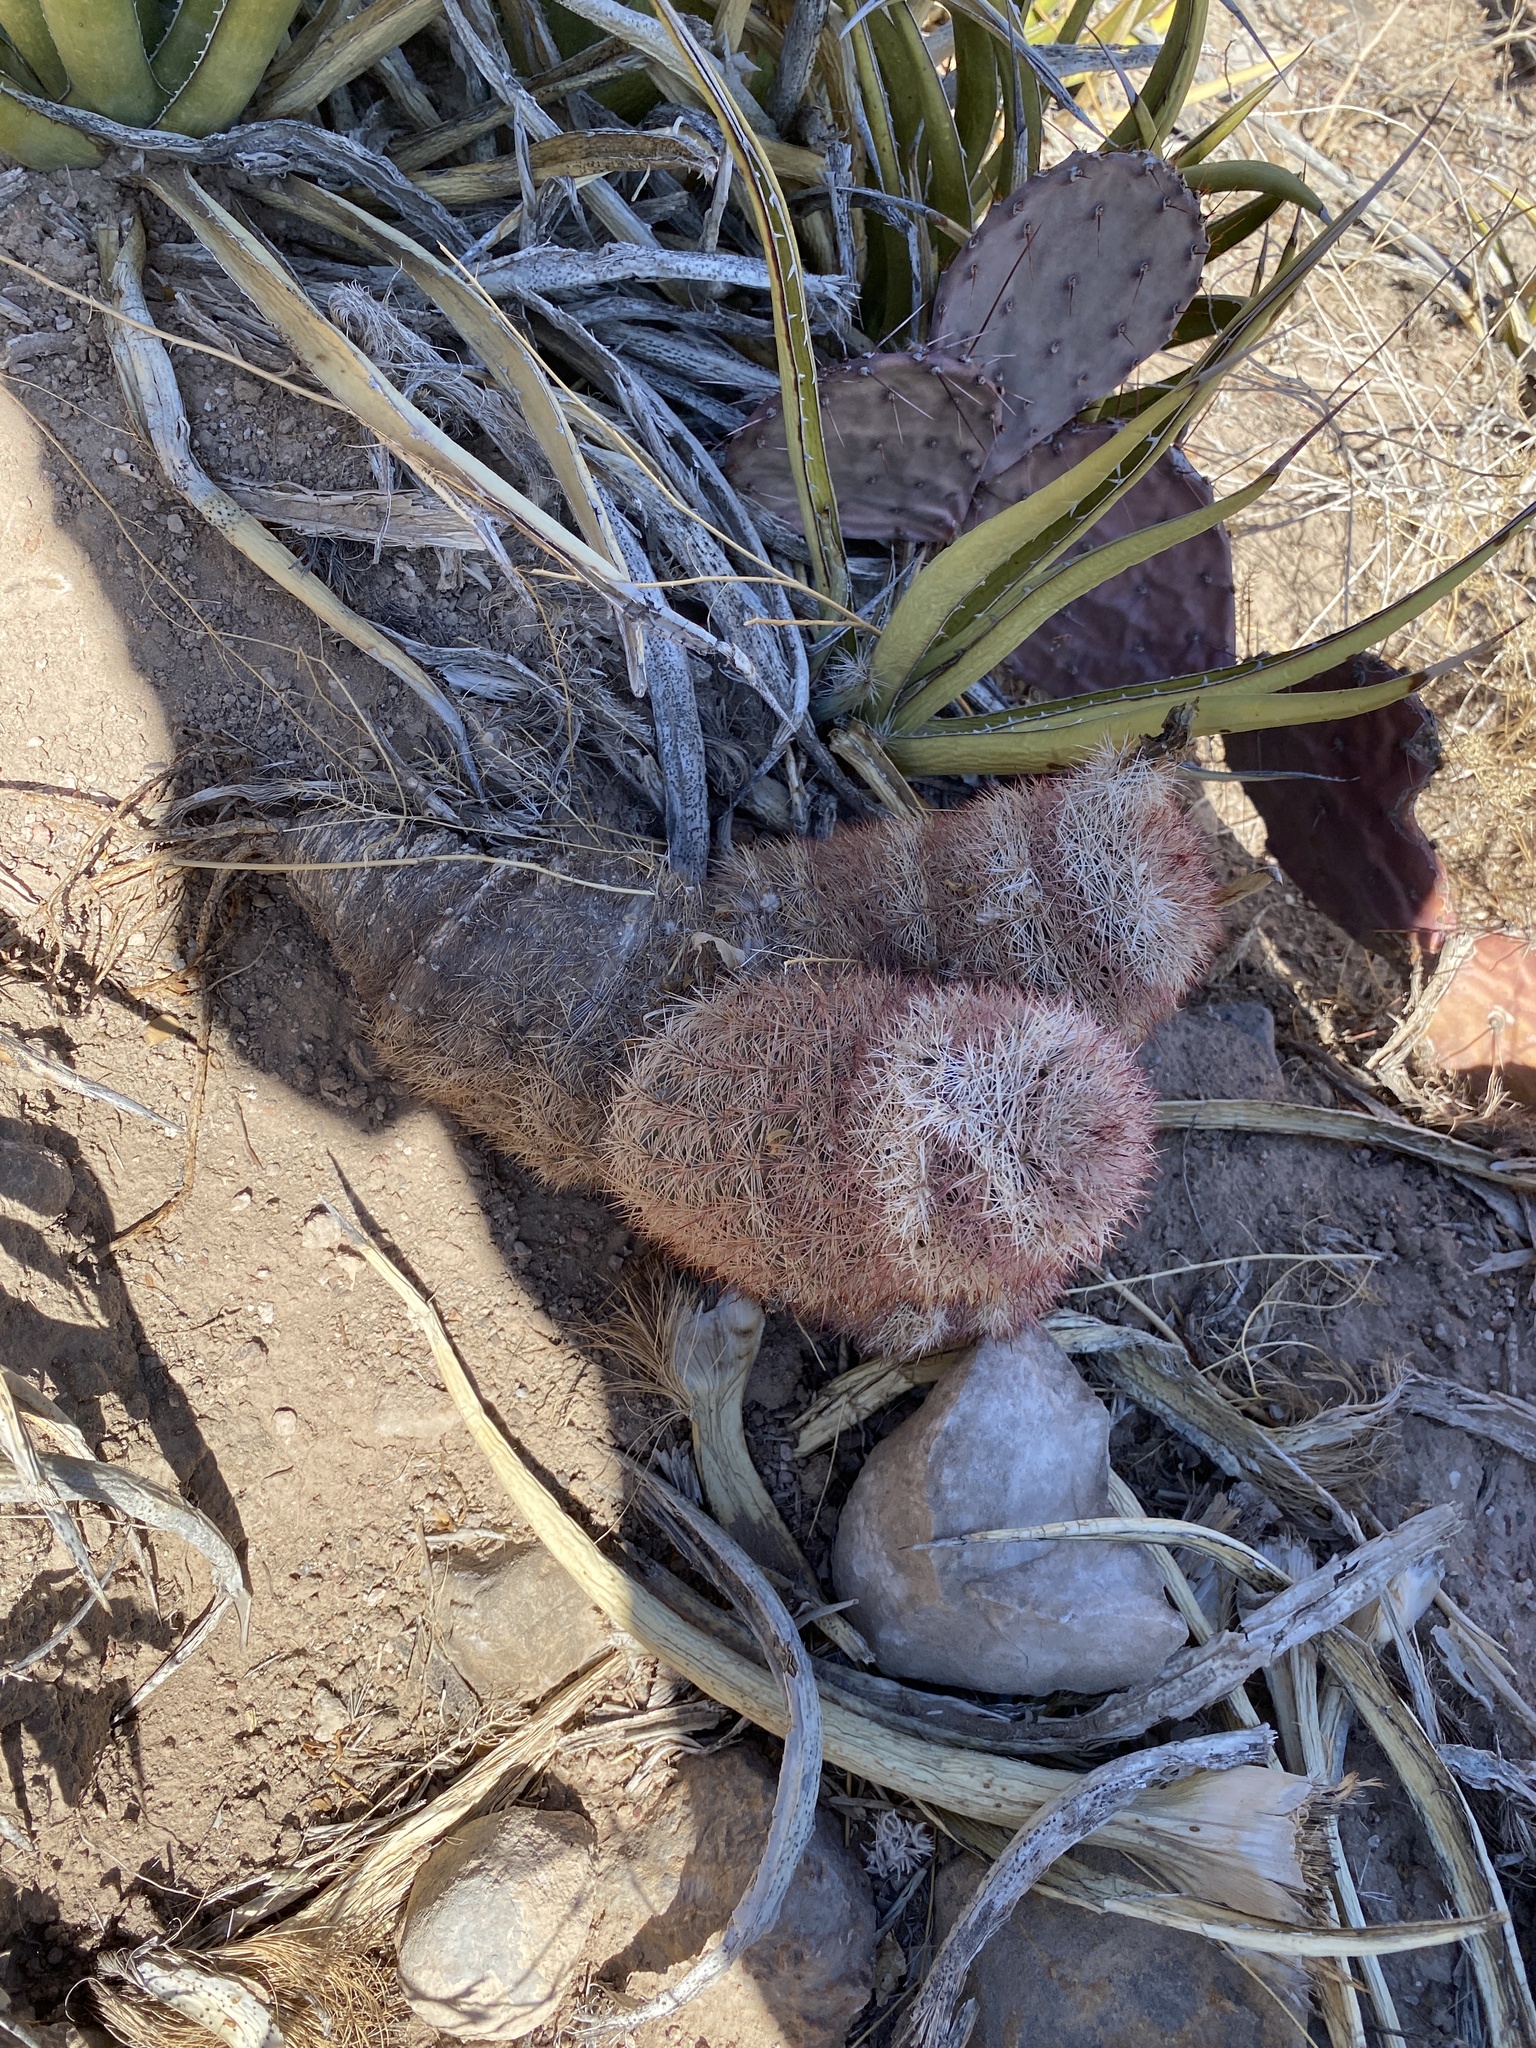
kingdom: Plantae
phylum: Tracheophyta
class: Magnoliopsida
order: Caryophyllales
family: Cactaceae
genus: Echinocereus
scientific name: Echinocereus dasyacanthus
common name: Spiny hedgehog cactus
